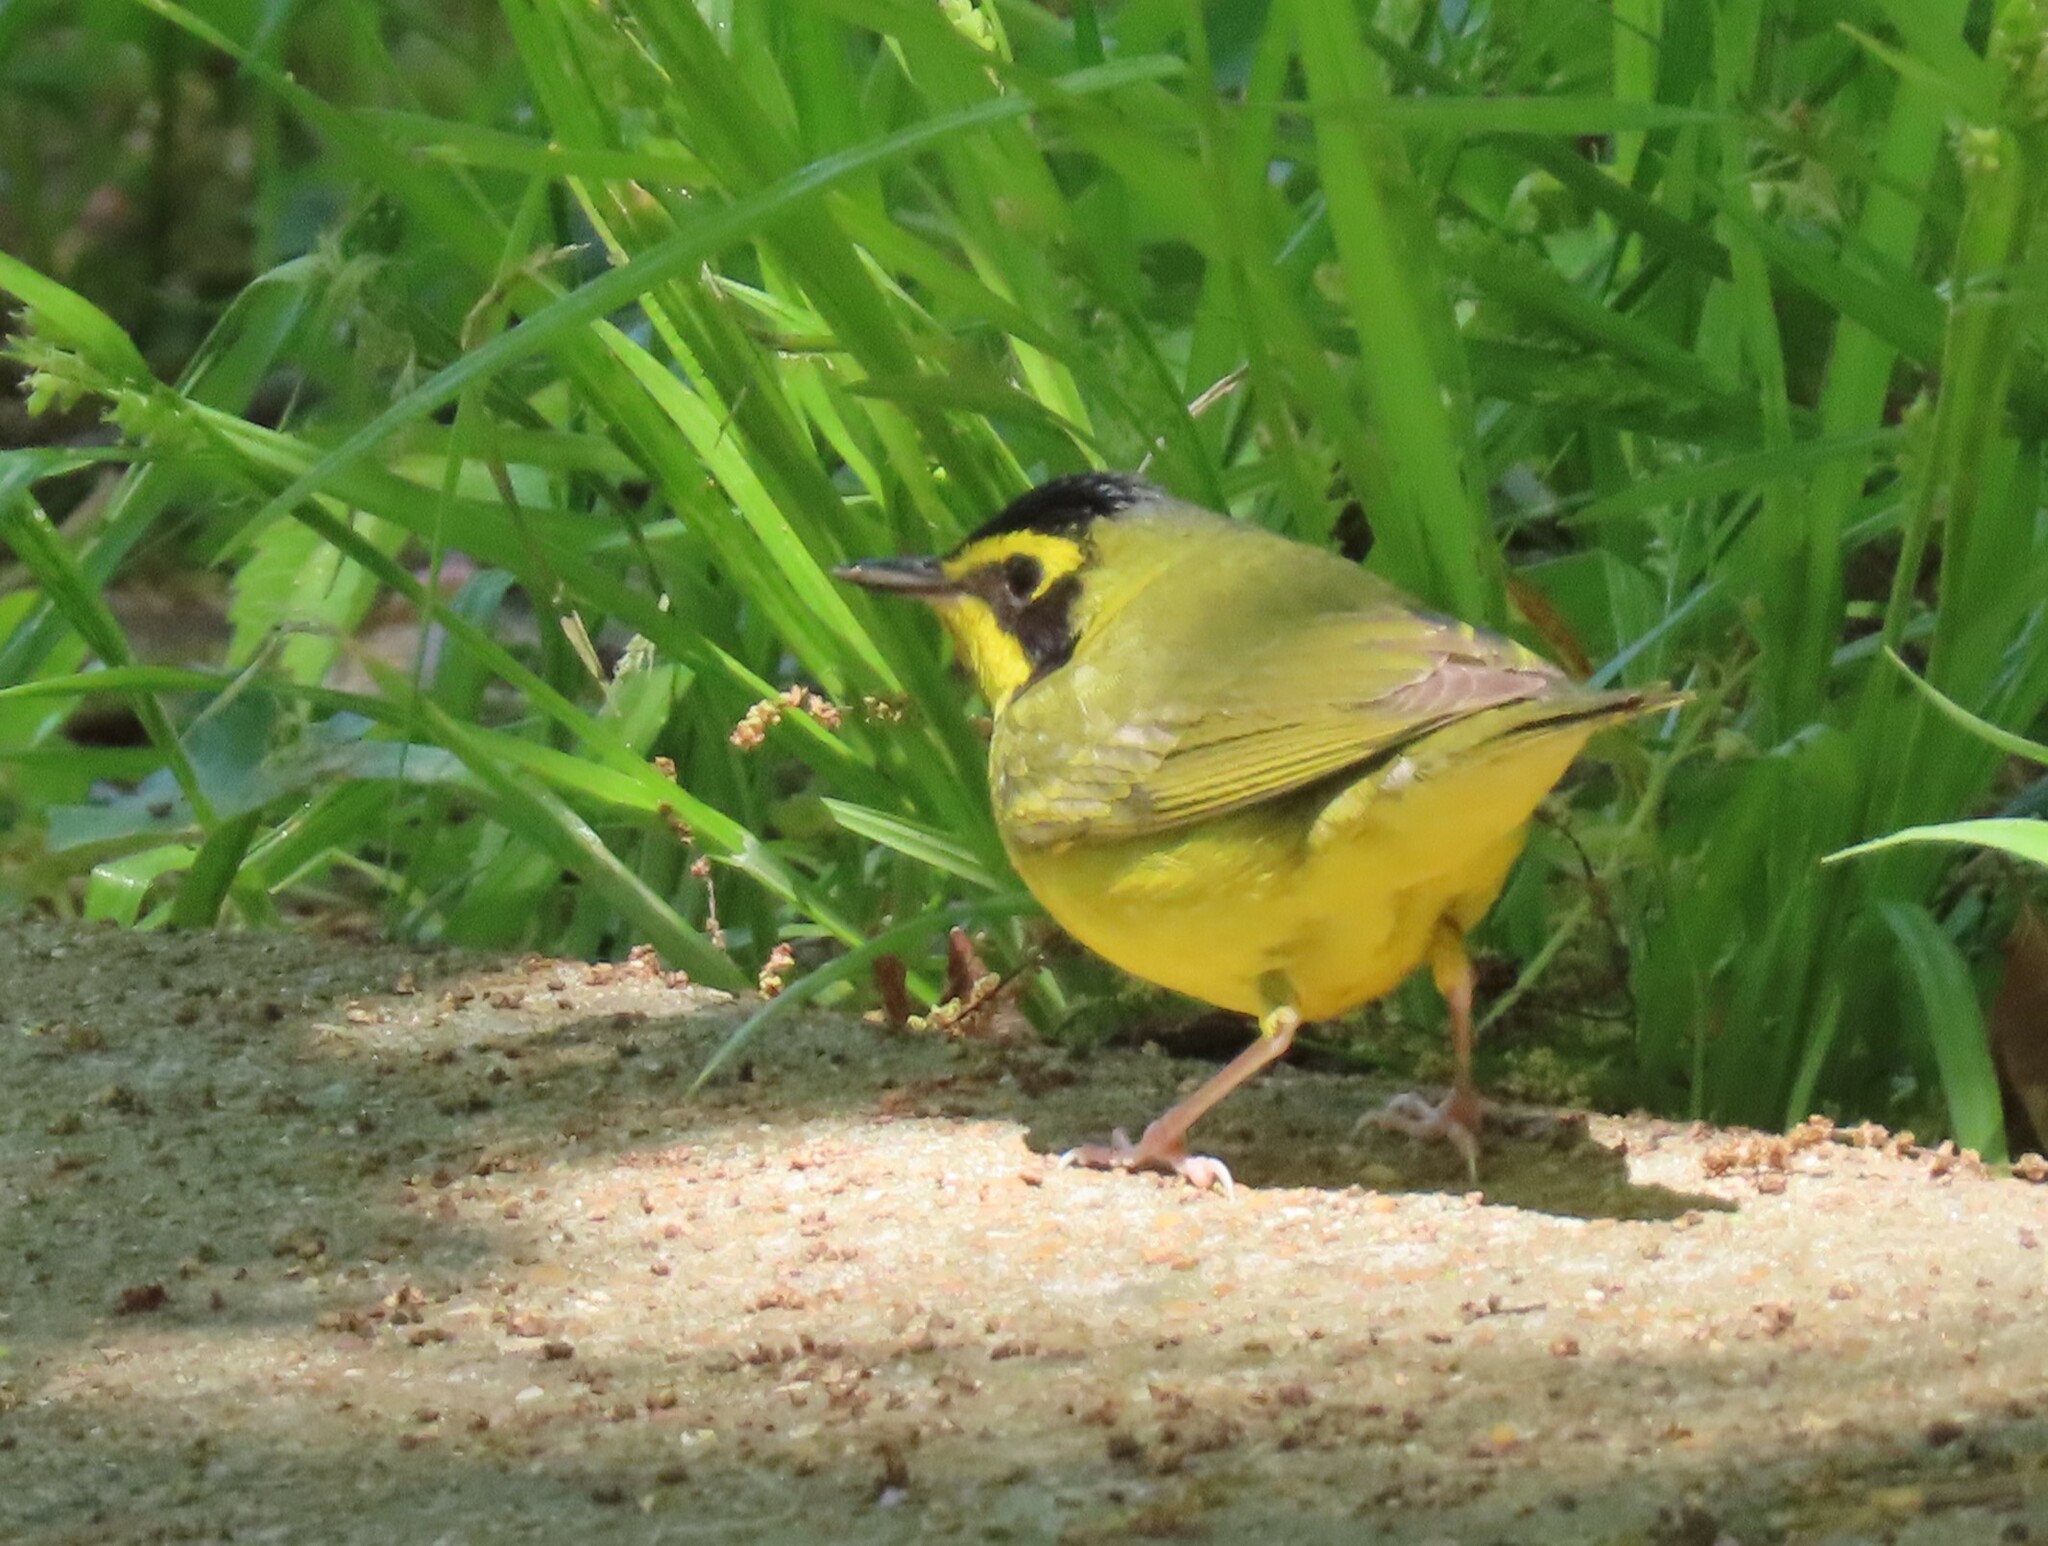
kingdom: Animalia
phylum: Chordata
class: Aves
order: Passeriformes
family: Parulidae
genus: Geothlypis
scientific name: Geothlypis formosa
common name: Kentucky warbler
